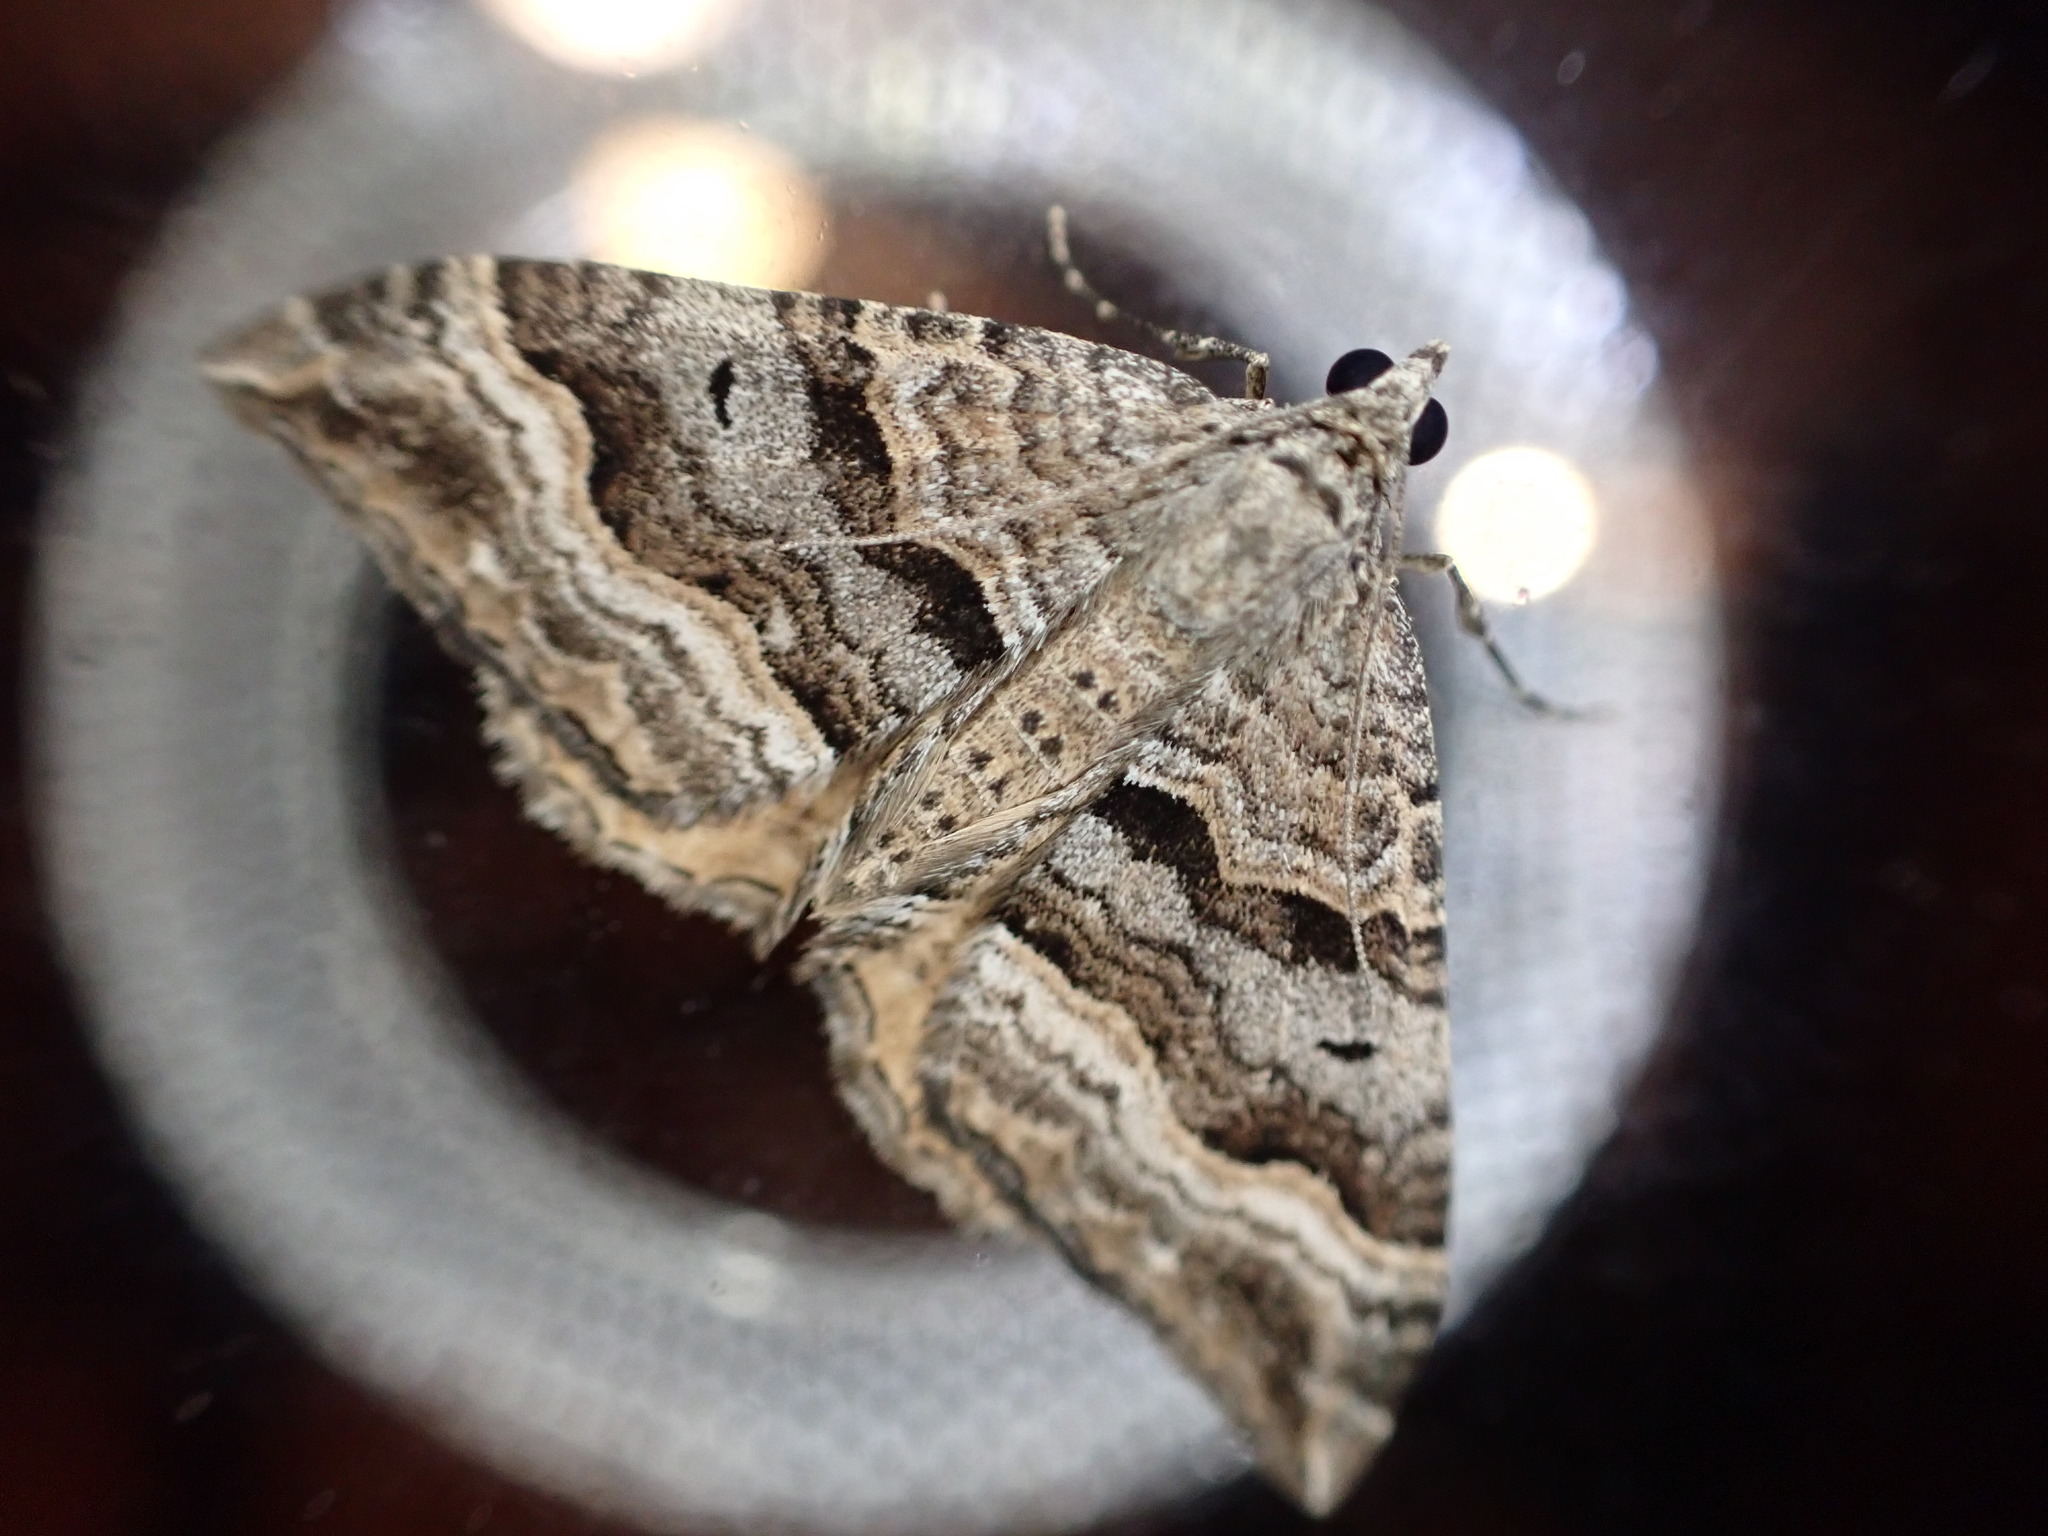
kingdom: Animalia
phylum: Arthropoda
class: Insecta
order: Lepidoptera
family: Geometridae
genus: Hydriomena
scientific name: Hydriomena deltoidata
